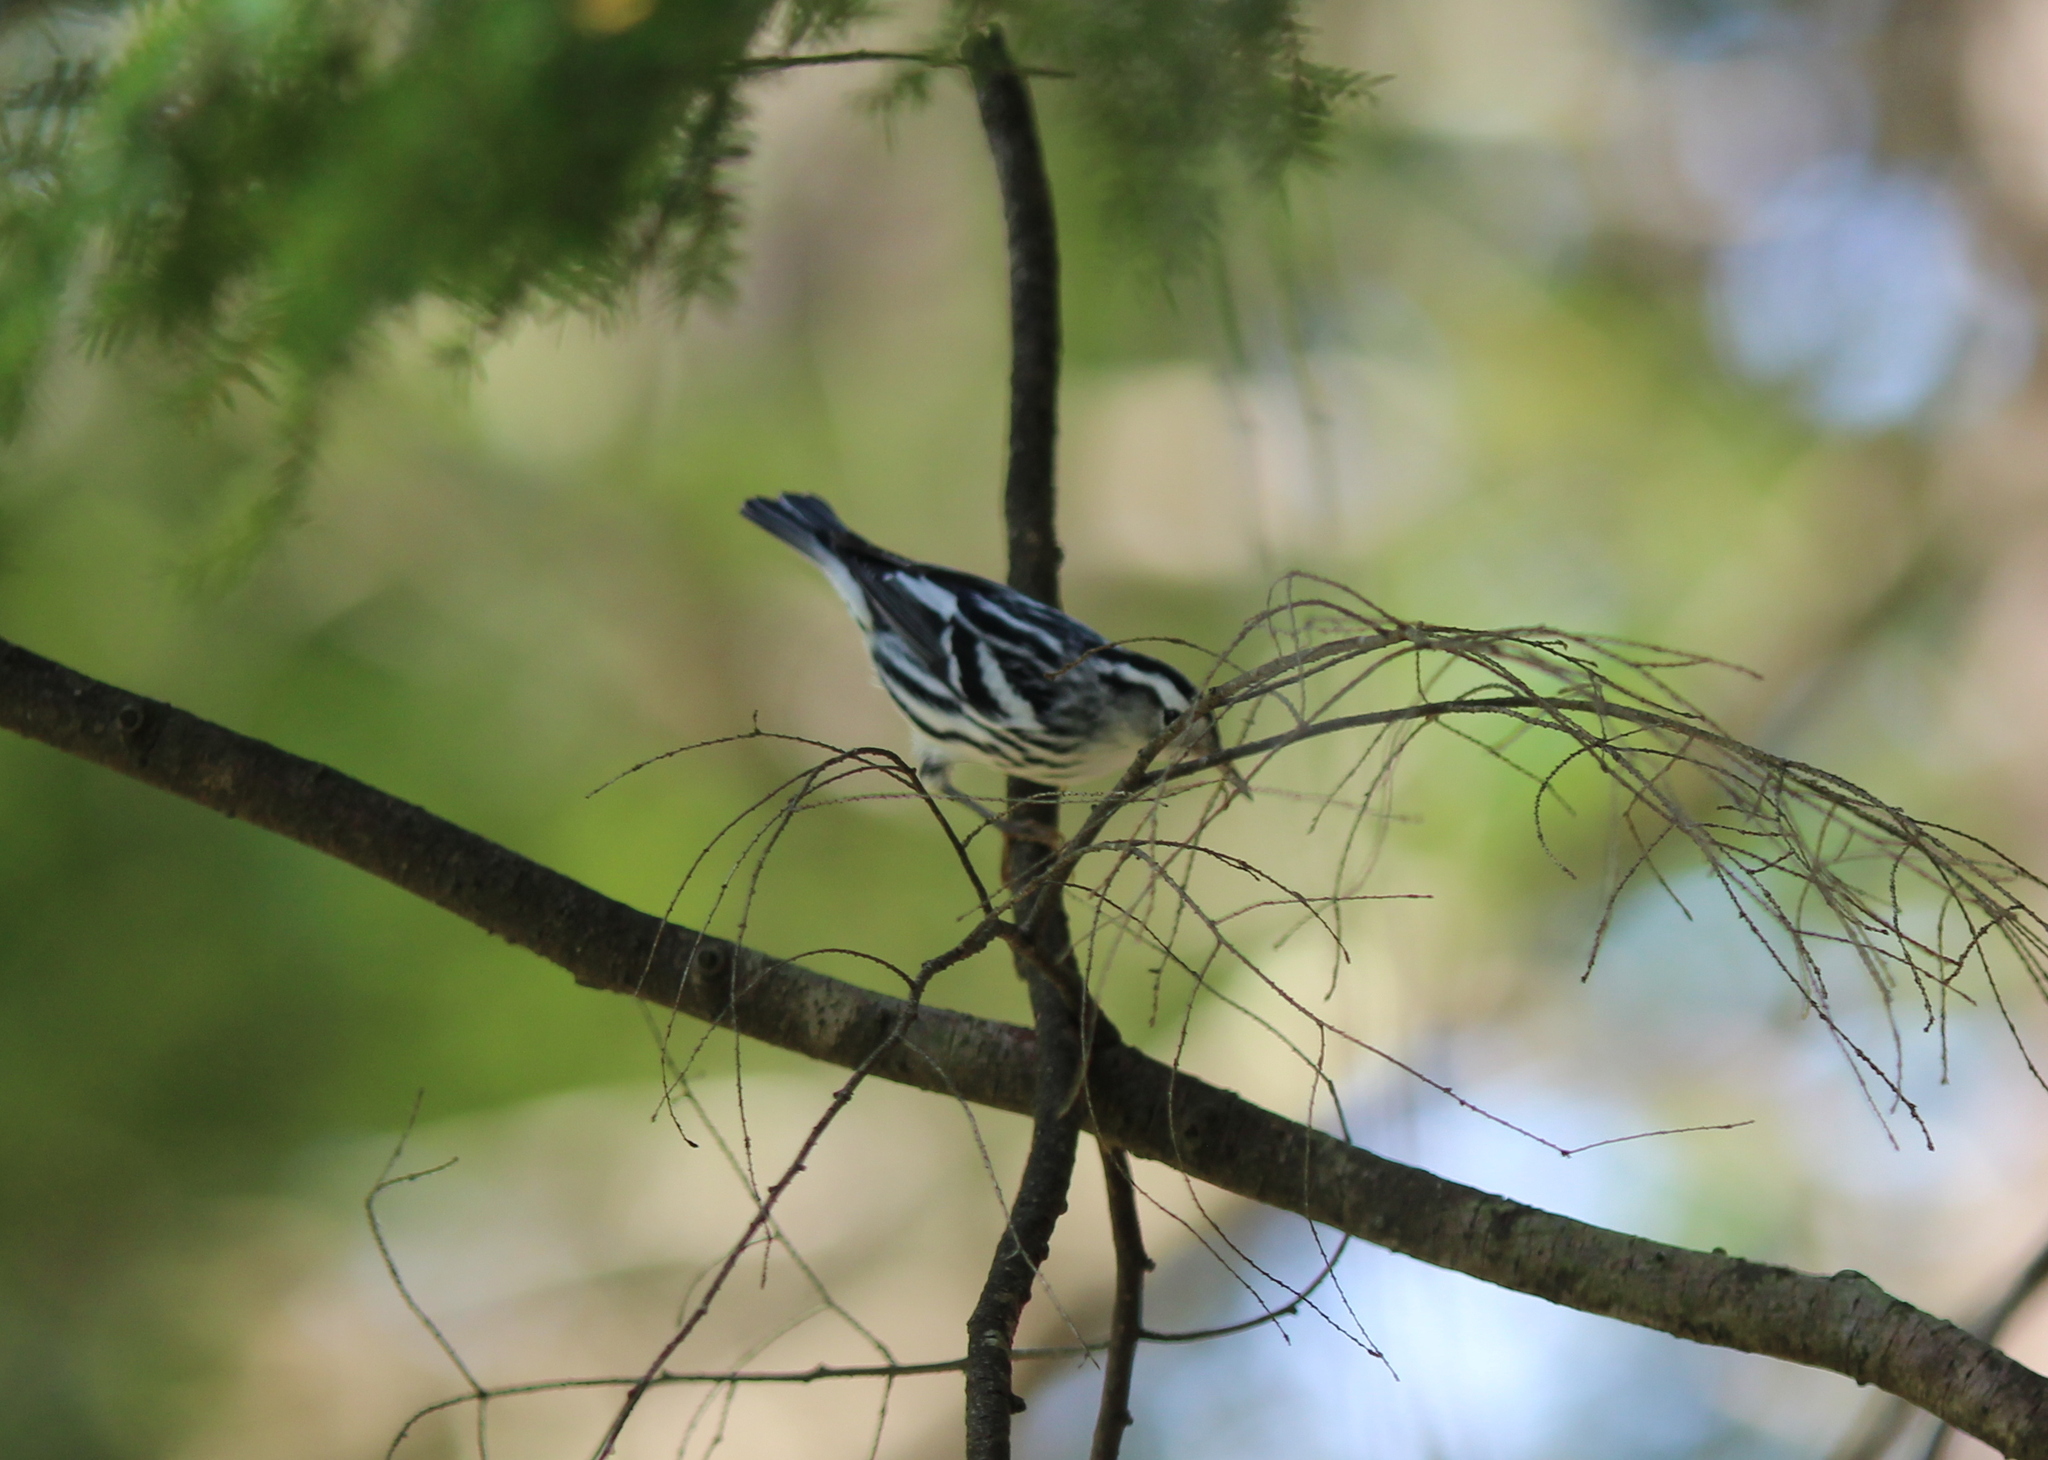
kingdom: Animalia
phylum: Chordata
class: Aves
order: Passeriformes
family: Parulidae
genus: Mniotilta
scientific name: Mniotilta varia
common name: Black-and-white warbler
